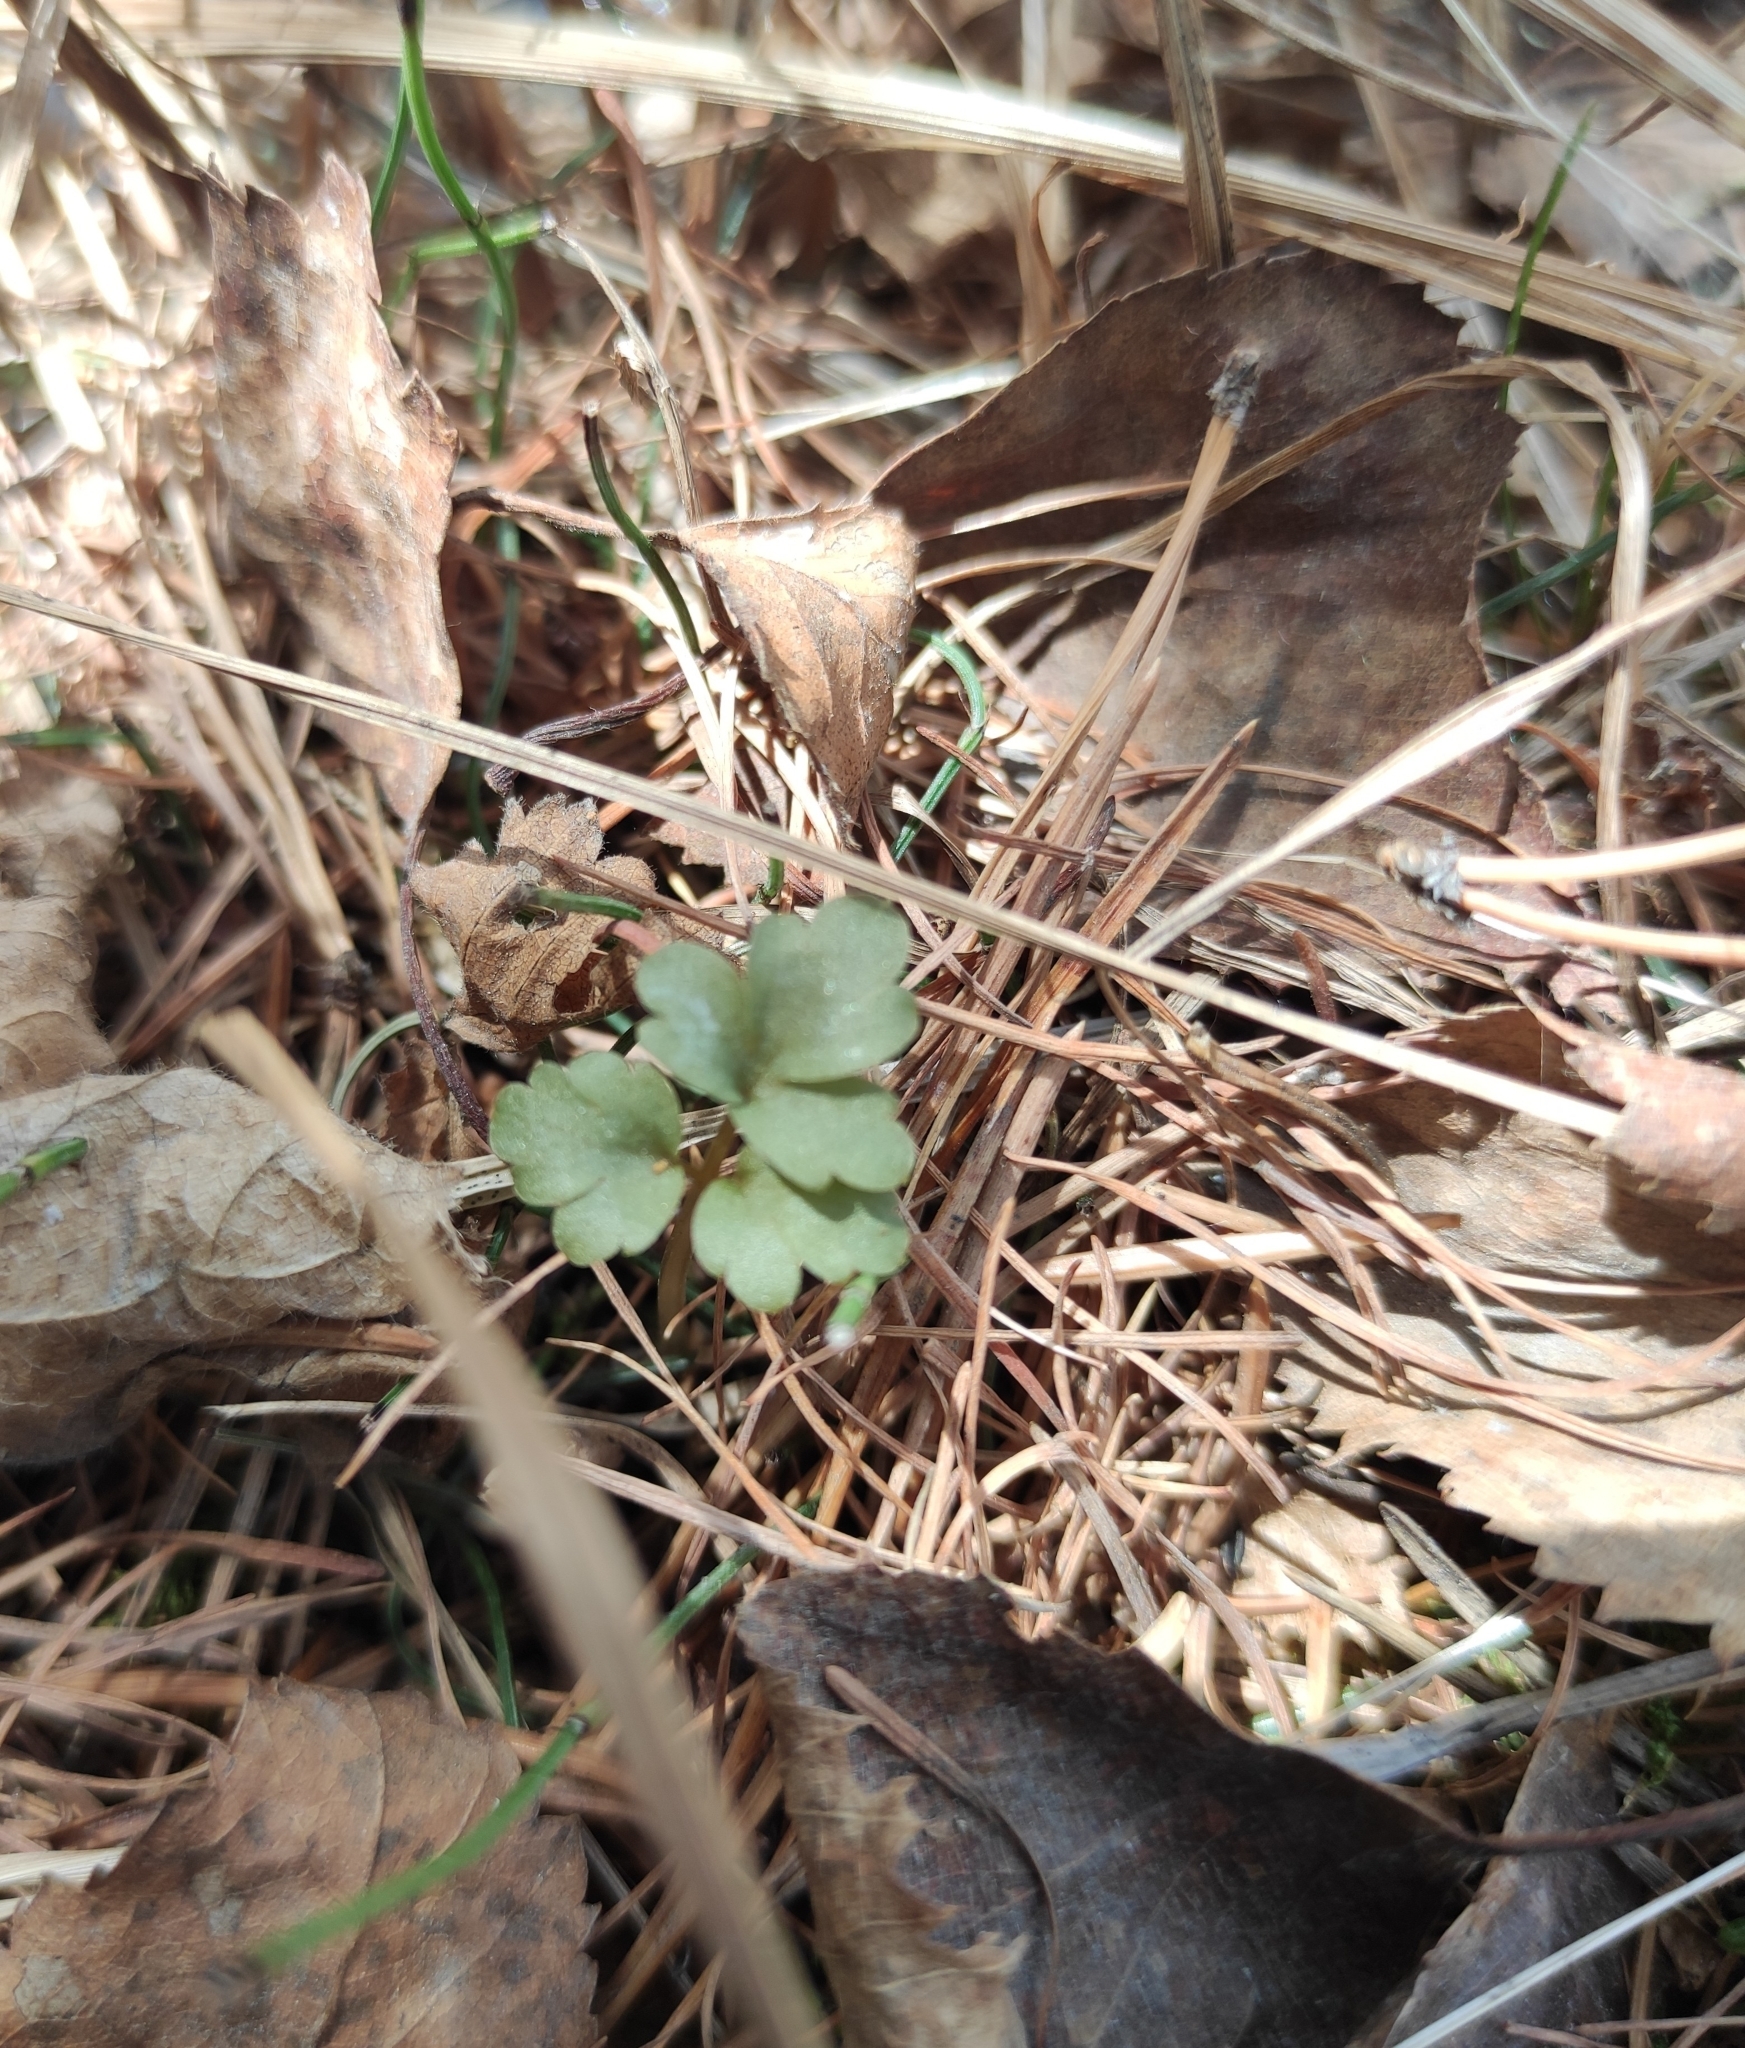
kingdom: Plantae
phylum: Tracheophyta
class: Magnoliopsida
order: Dipsacales
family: Viburnaceae
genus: Adoxa
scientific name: Adoxa moschatellina
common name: Moschatel
